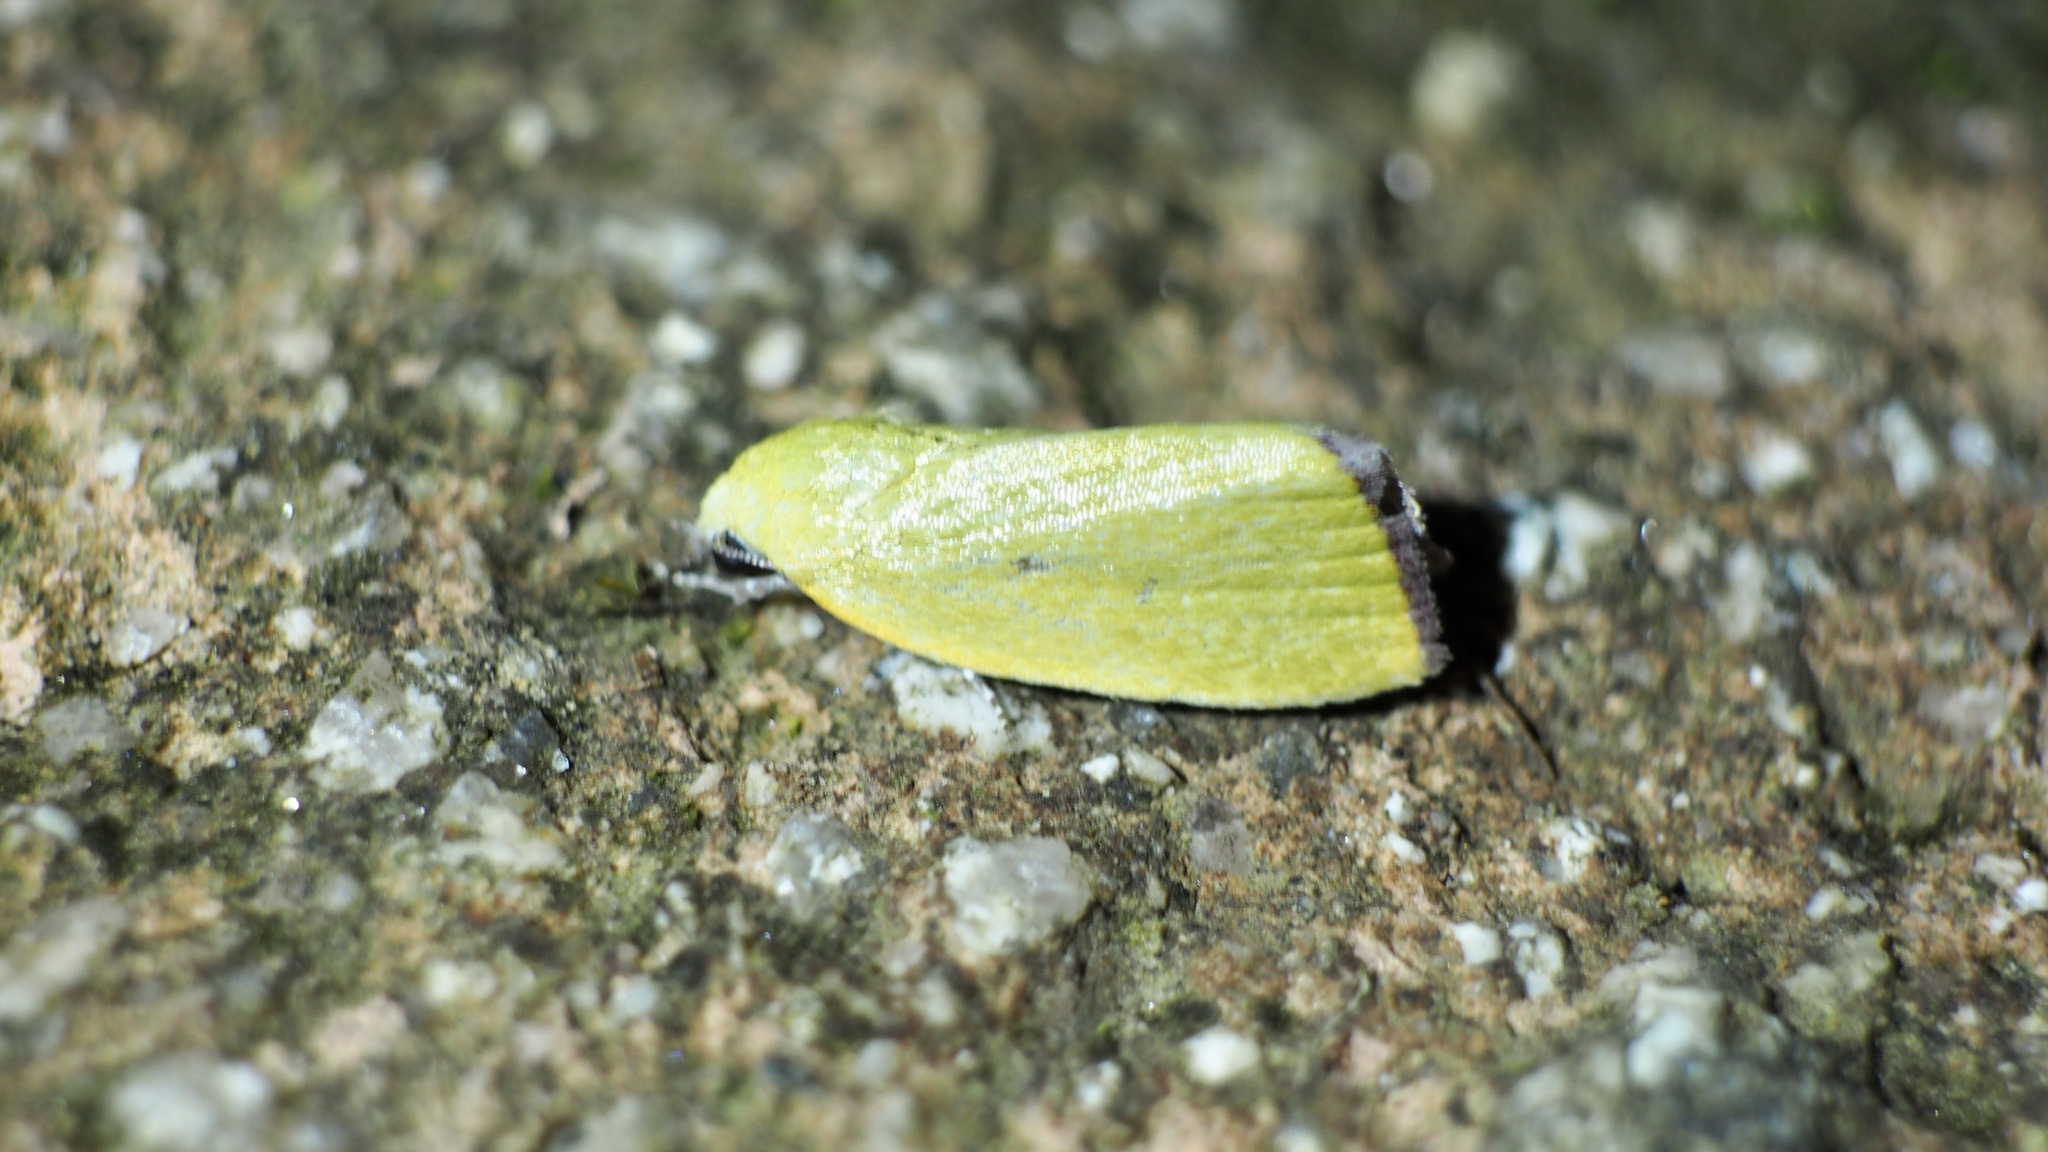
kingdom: Animalia
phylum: Arthropoda
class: Insecta
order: Lepidoptera
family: Nolidae
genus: Earias
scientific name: Earias pudicana
